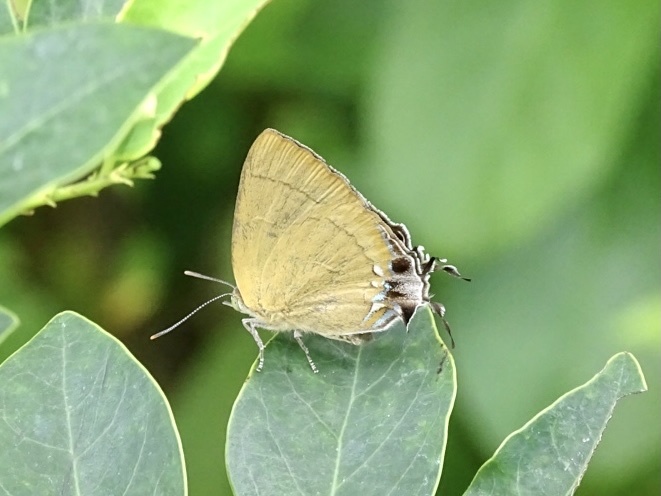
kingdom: Animalia
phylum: Arthropoda
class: Insecta
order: Lepidoptera
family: Lycaenidae
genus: Remelana
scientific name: Remelana jangala
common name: Chocolate royal
